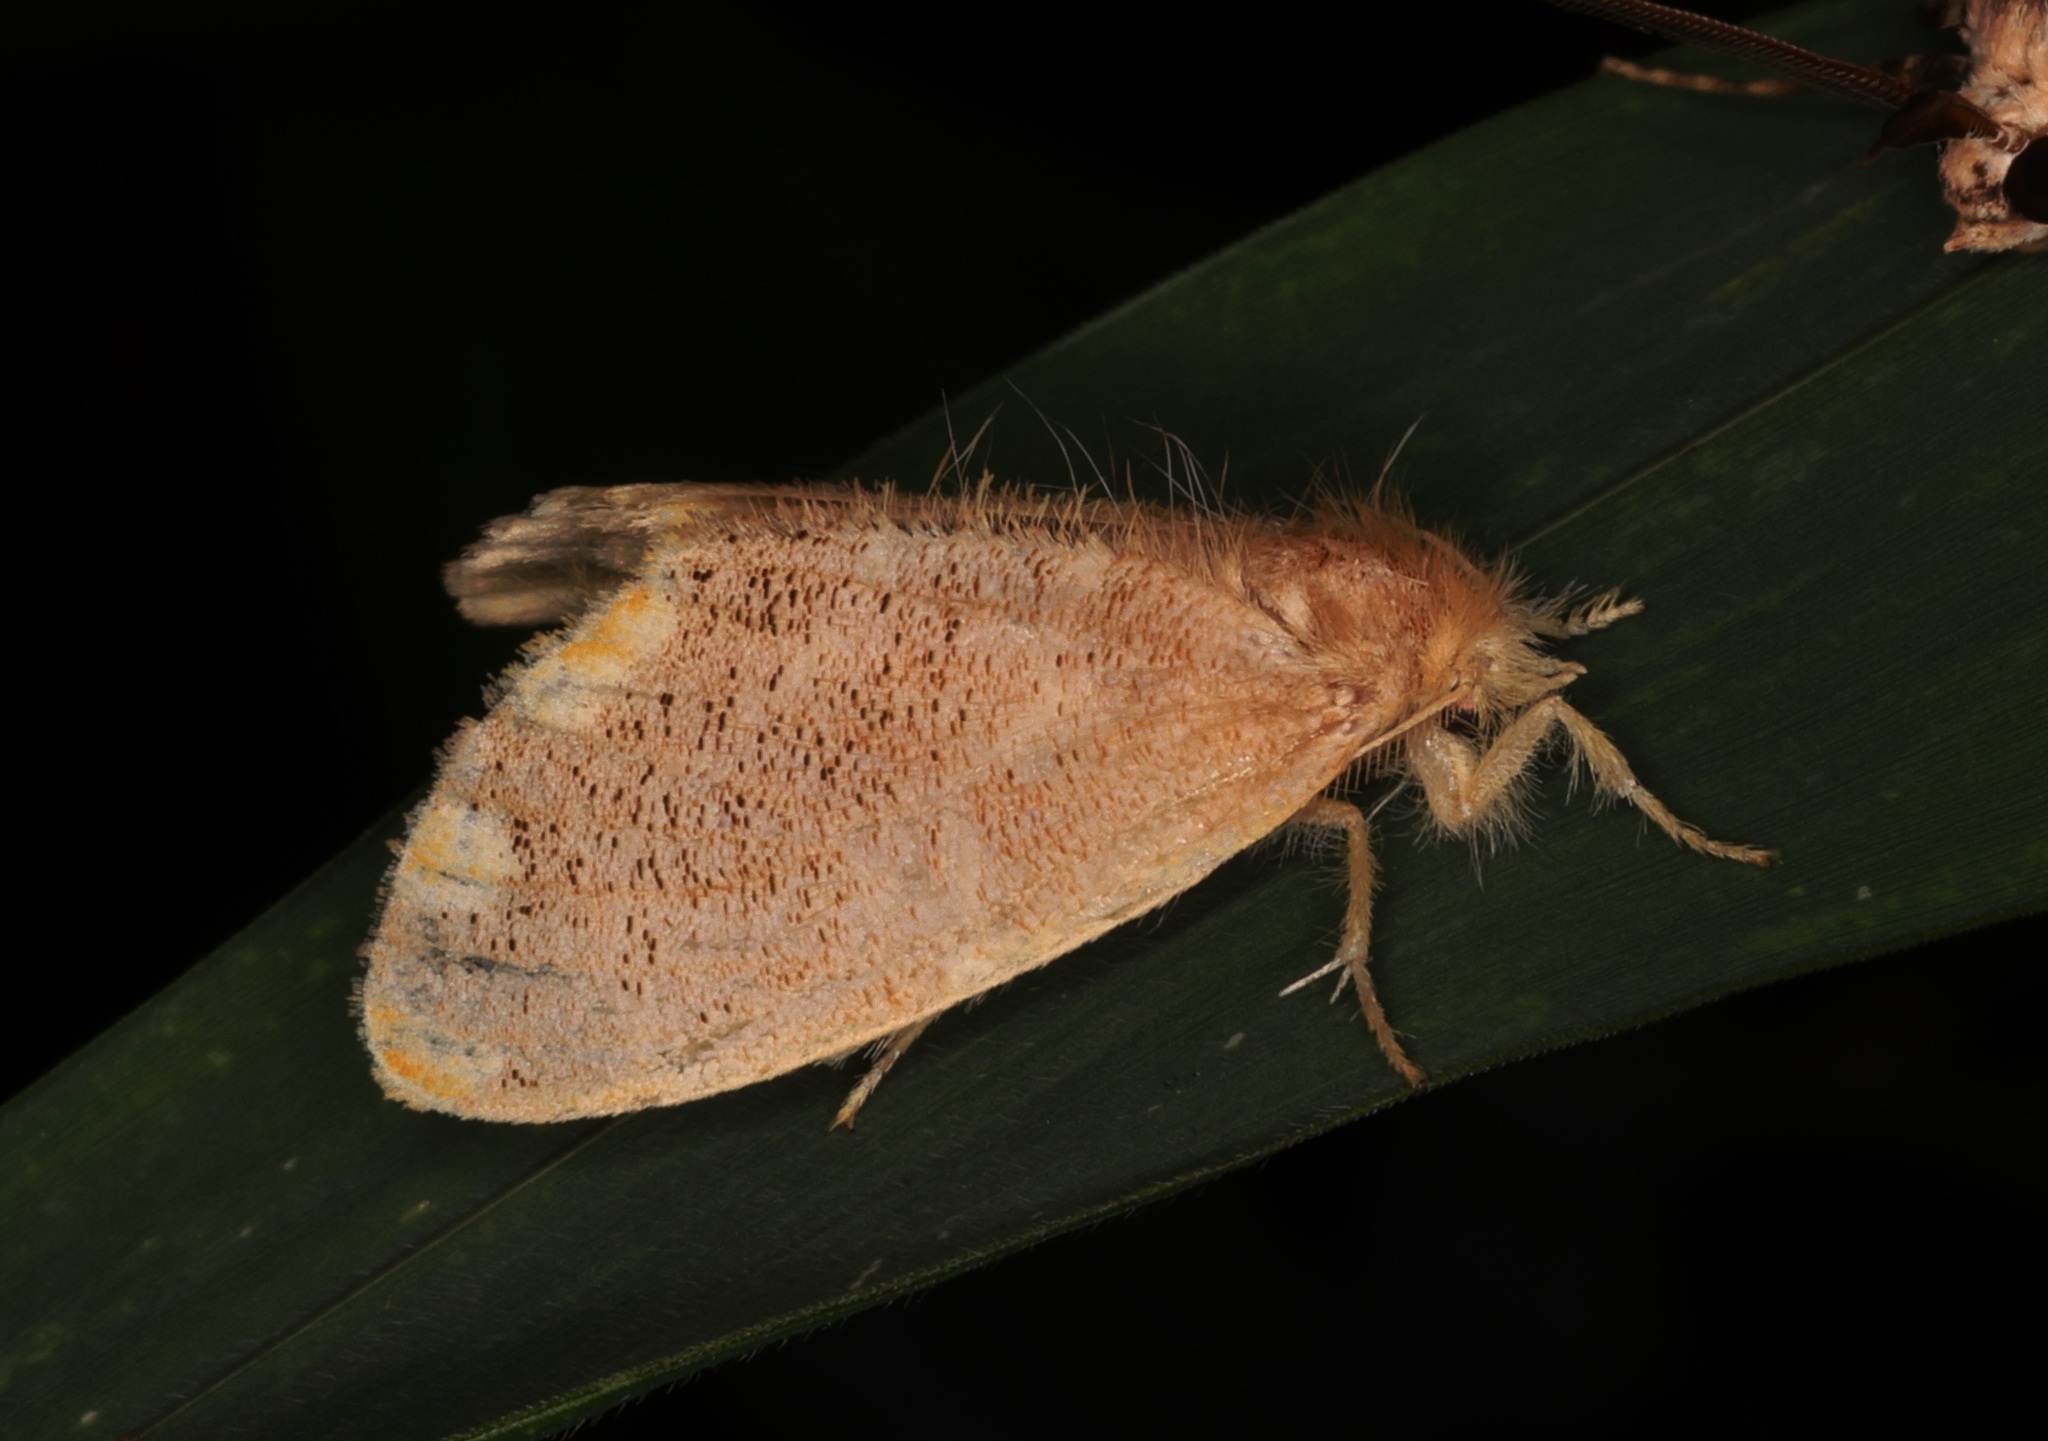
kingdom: Animalia
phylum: Arthropoda
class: Insecta
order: Lepidoptera
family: Erebidae
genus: Orvasca
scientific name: Orvasca subnotata
